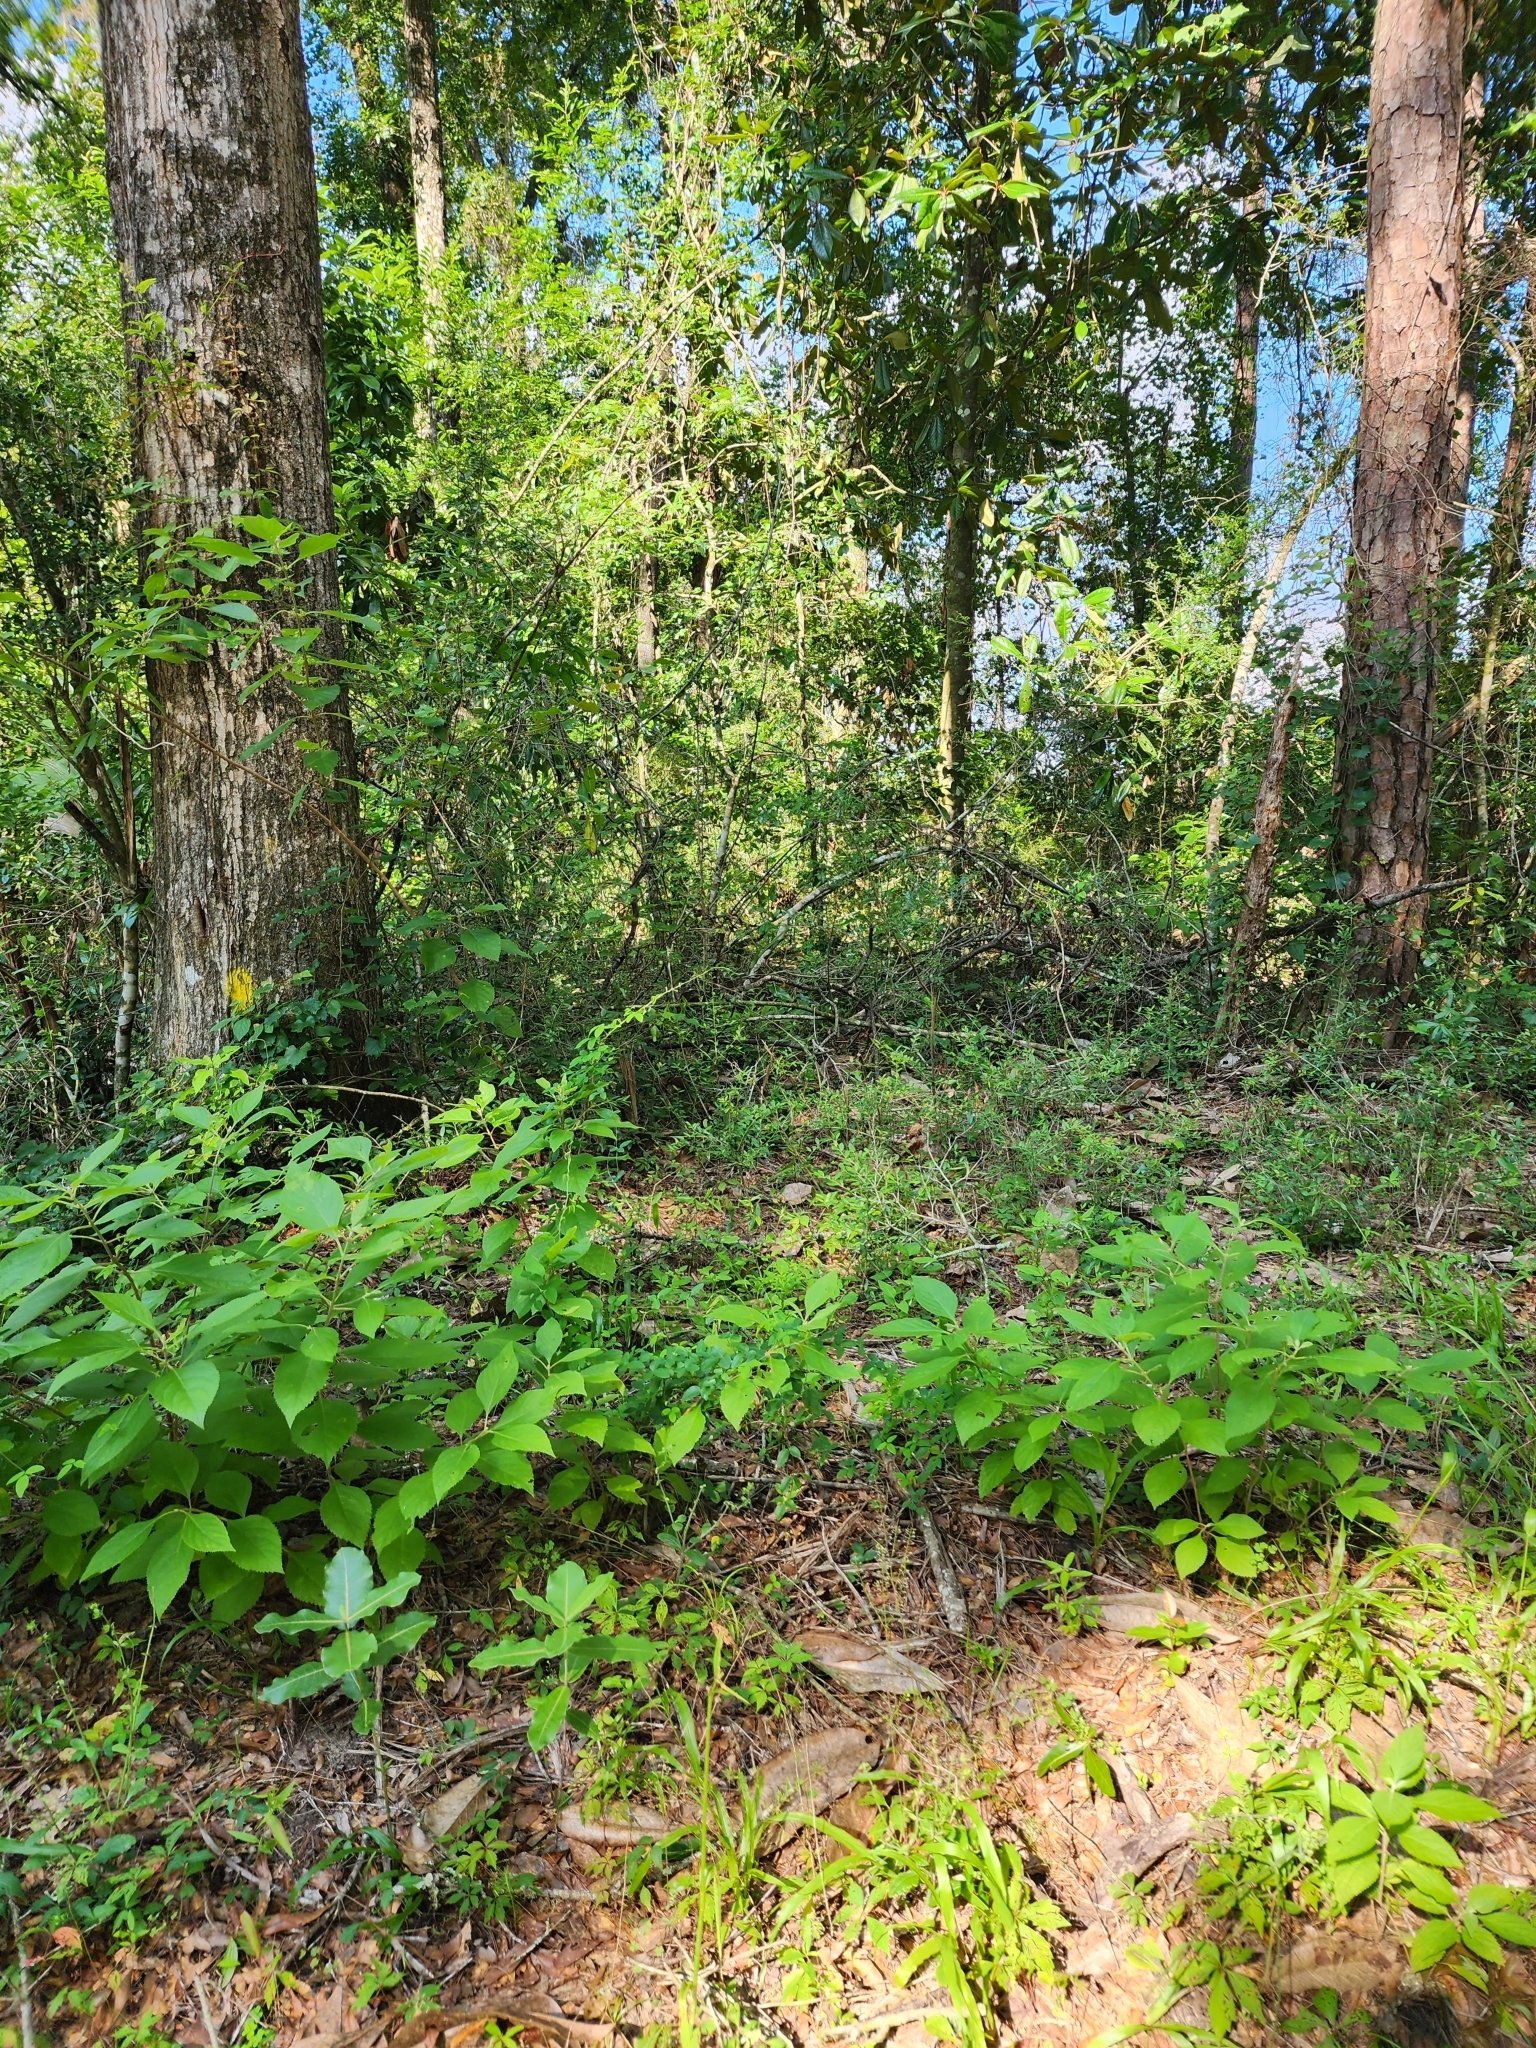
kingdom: Plantae
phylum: Tracheophyta
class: Magnoliopsida
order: Gentianales
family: Apocynaceae
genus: Asclepias
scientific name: Asclepias amplexicaulis
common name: Blunt-leaf milkweed
